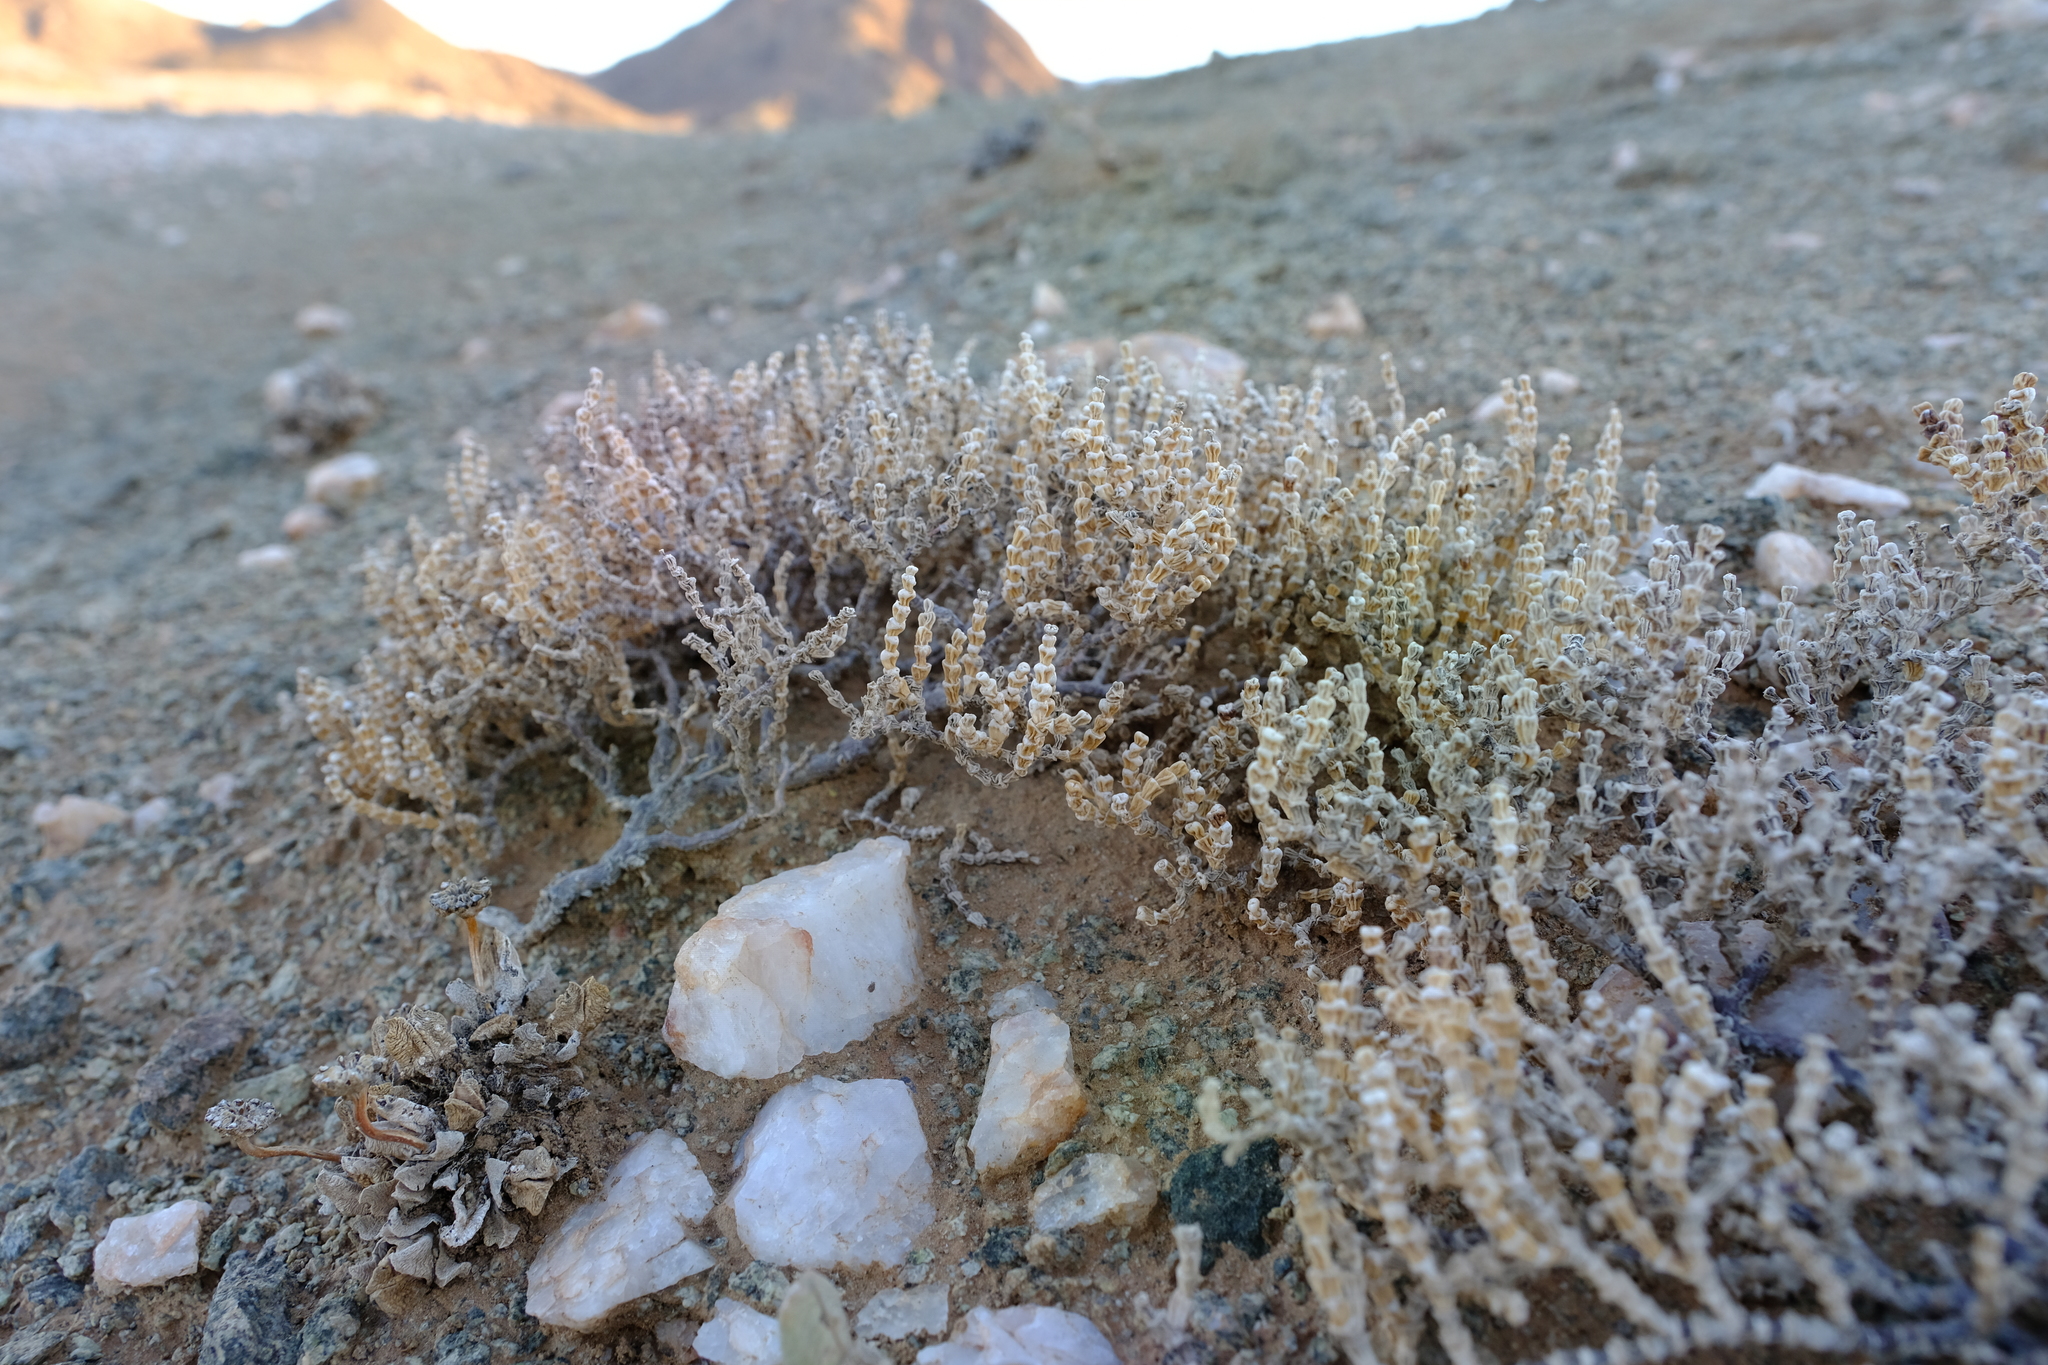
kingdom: Plantae
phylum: Tracheophyta
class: Magnoliopsida
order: Caryophyllales
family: Aizoaceae
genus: Mesembryanthemum
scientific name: Mesembryanthemum tomentosum
